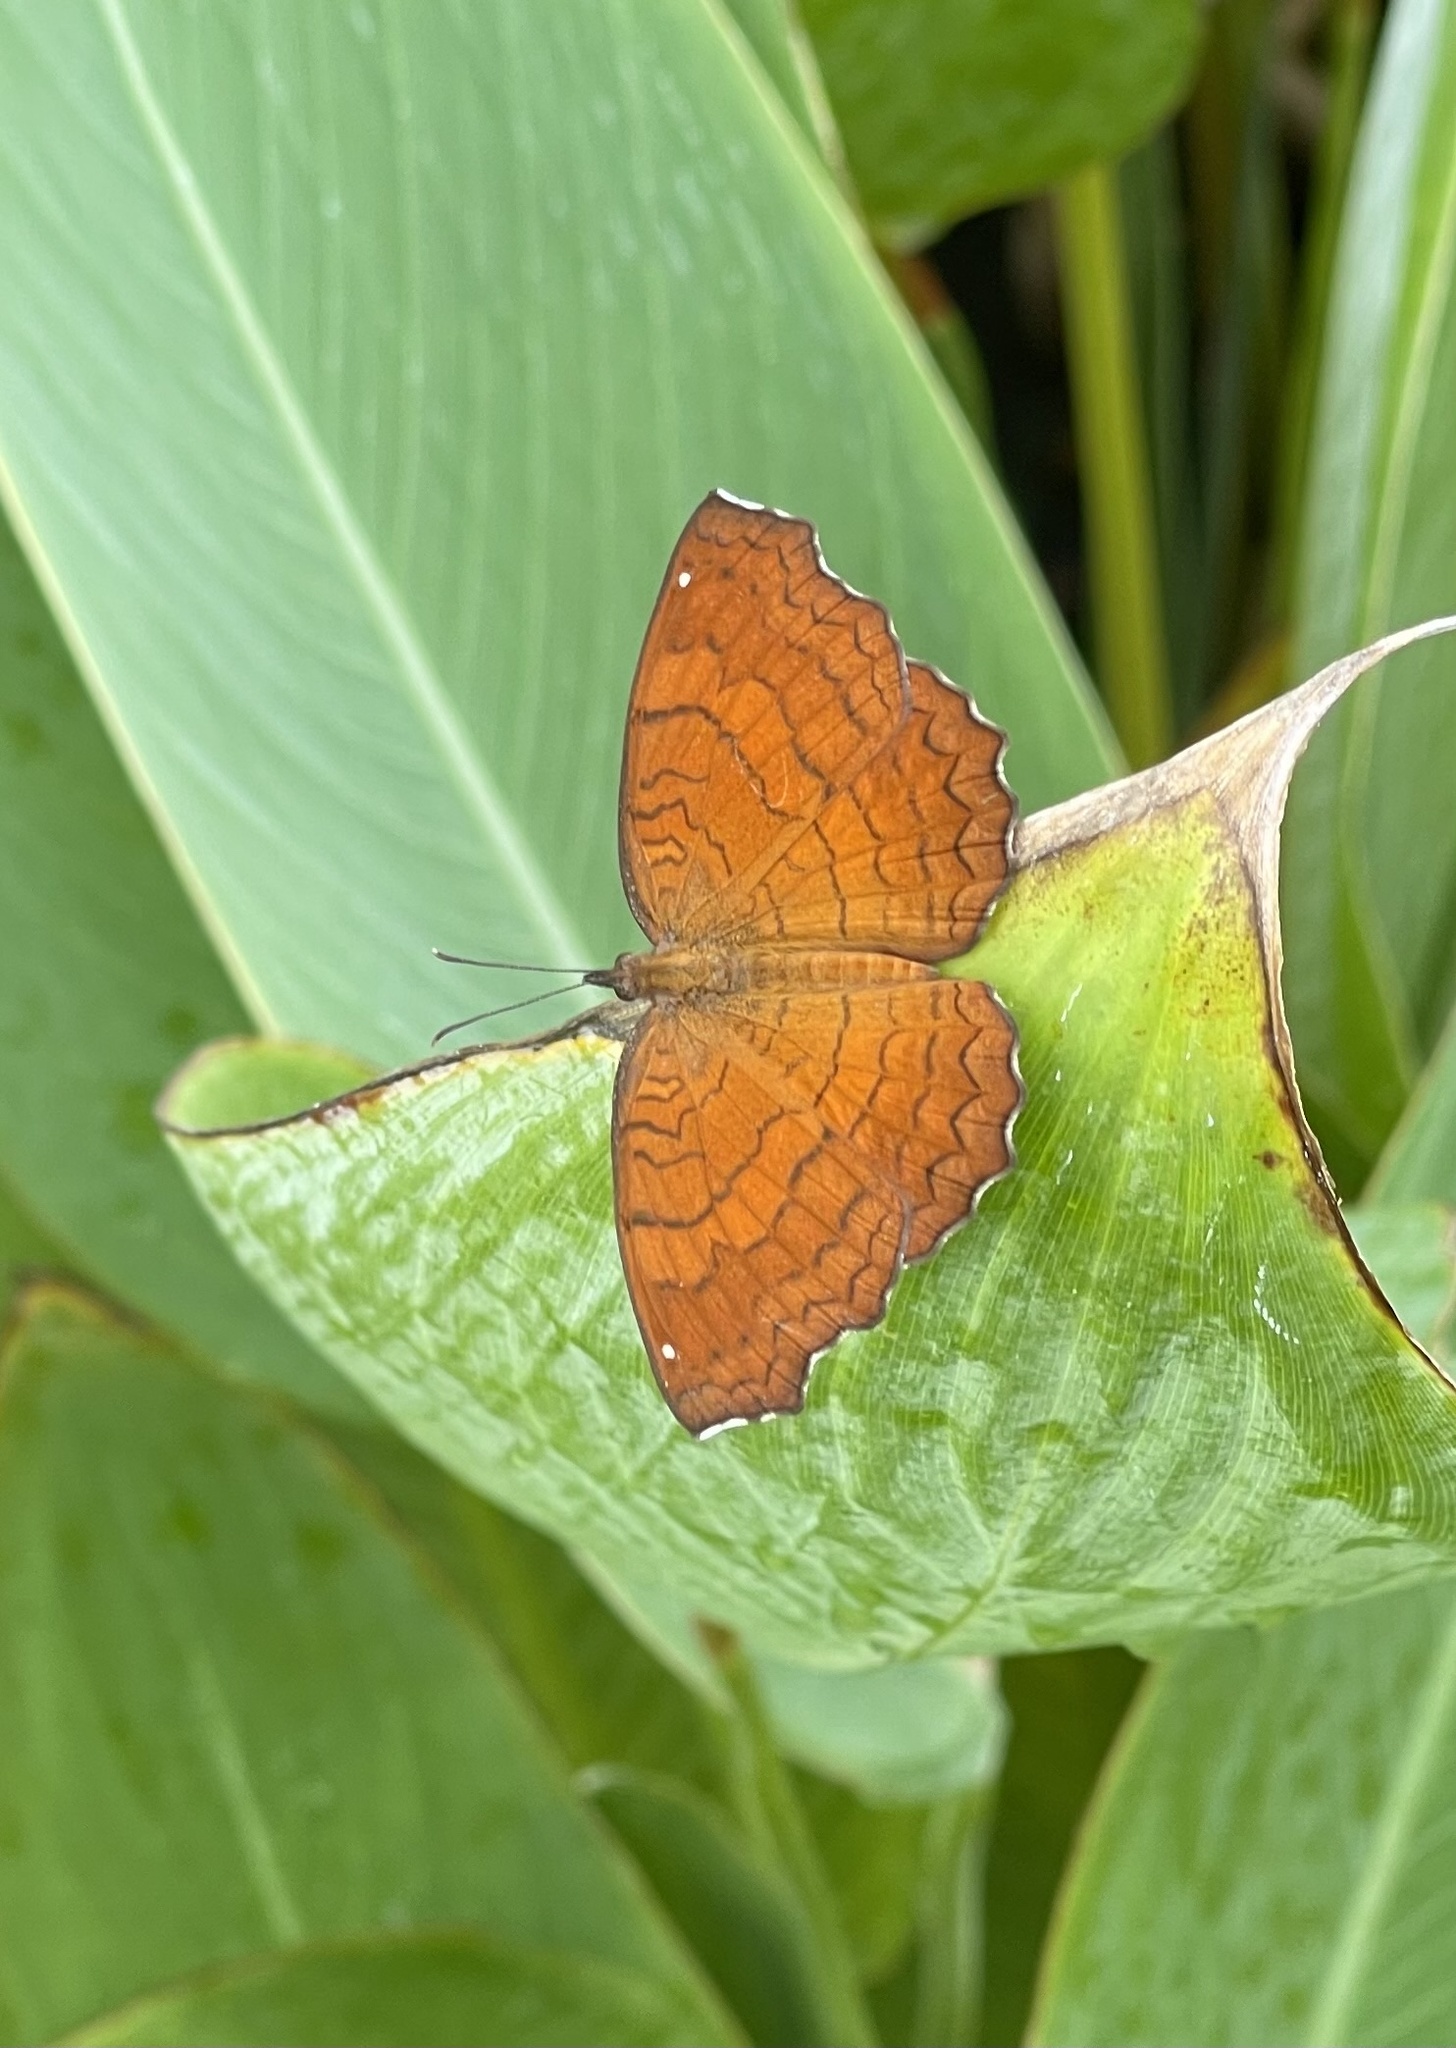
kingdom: Animalia
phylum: Arthropoda
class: Insecta
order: Lepidoptera
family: Nymphalidae
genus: Ariadne
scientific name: Ariadne ariadne
